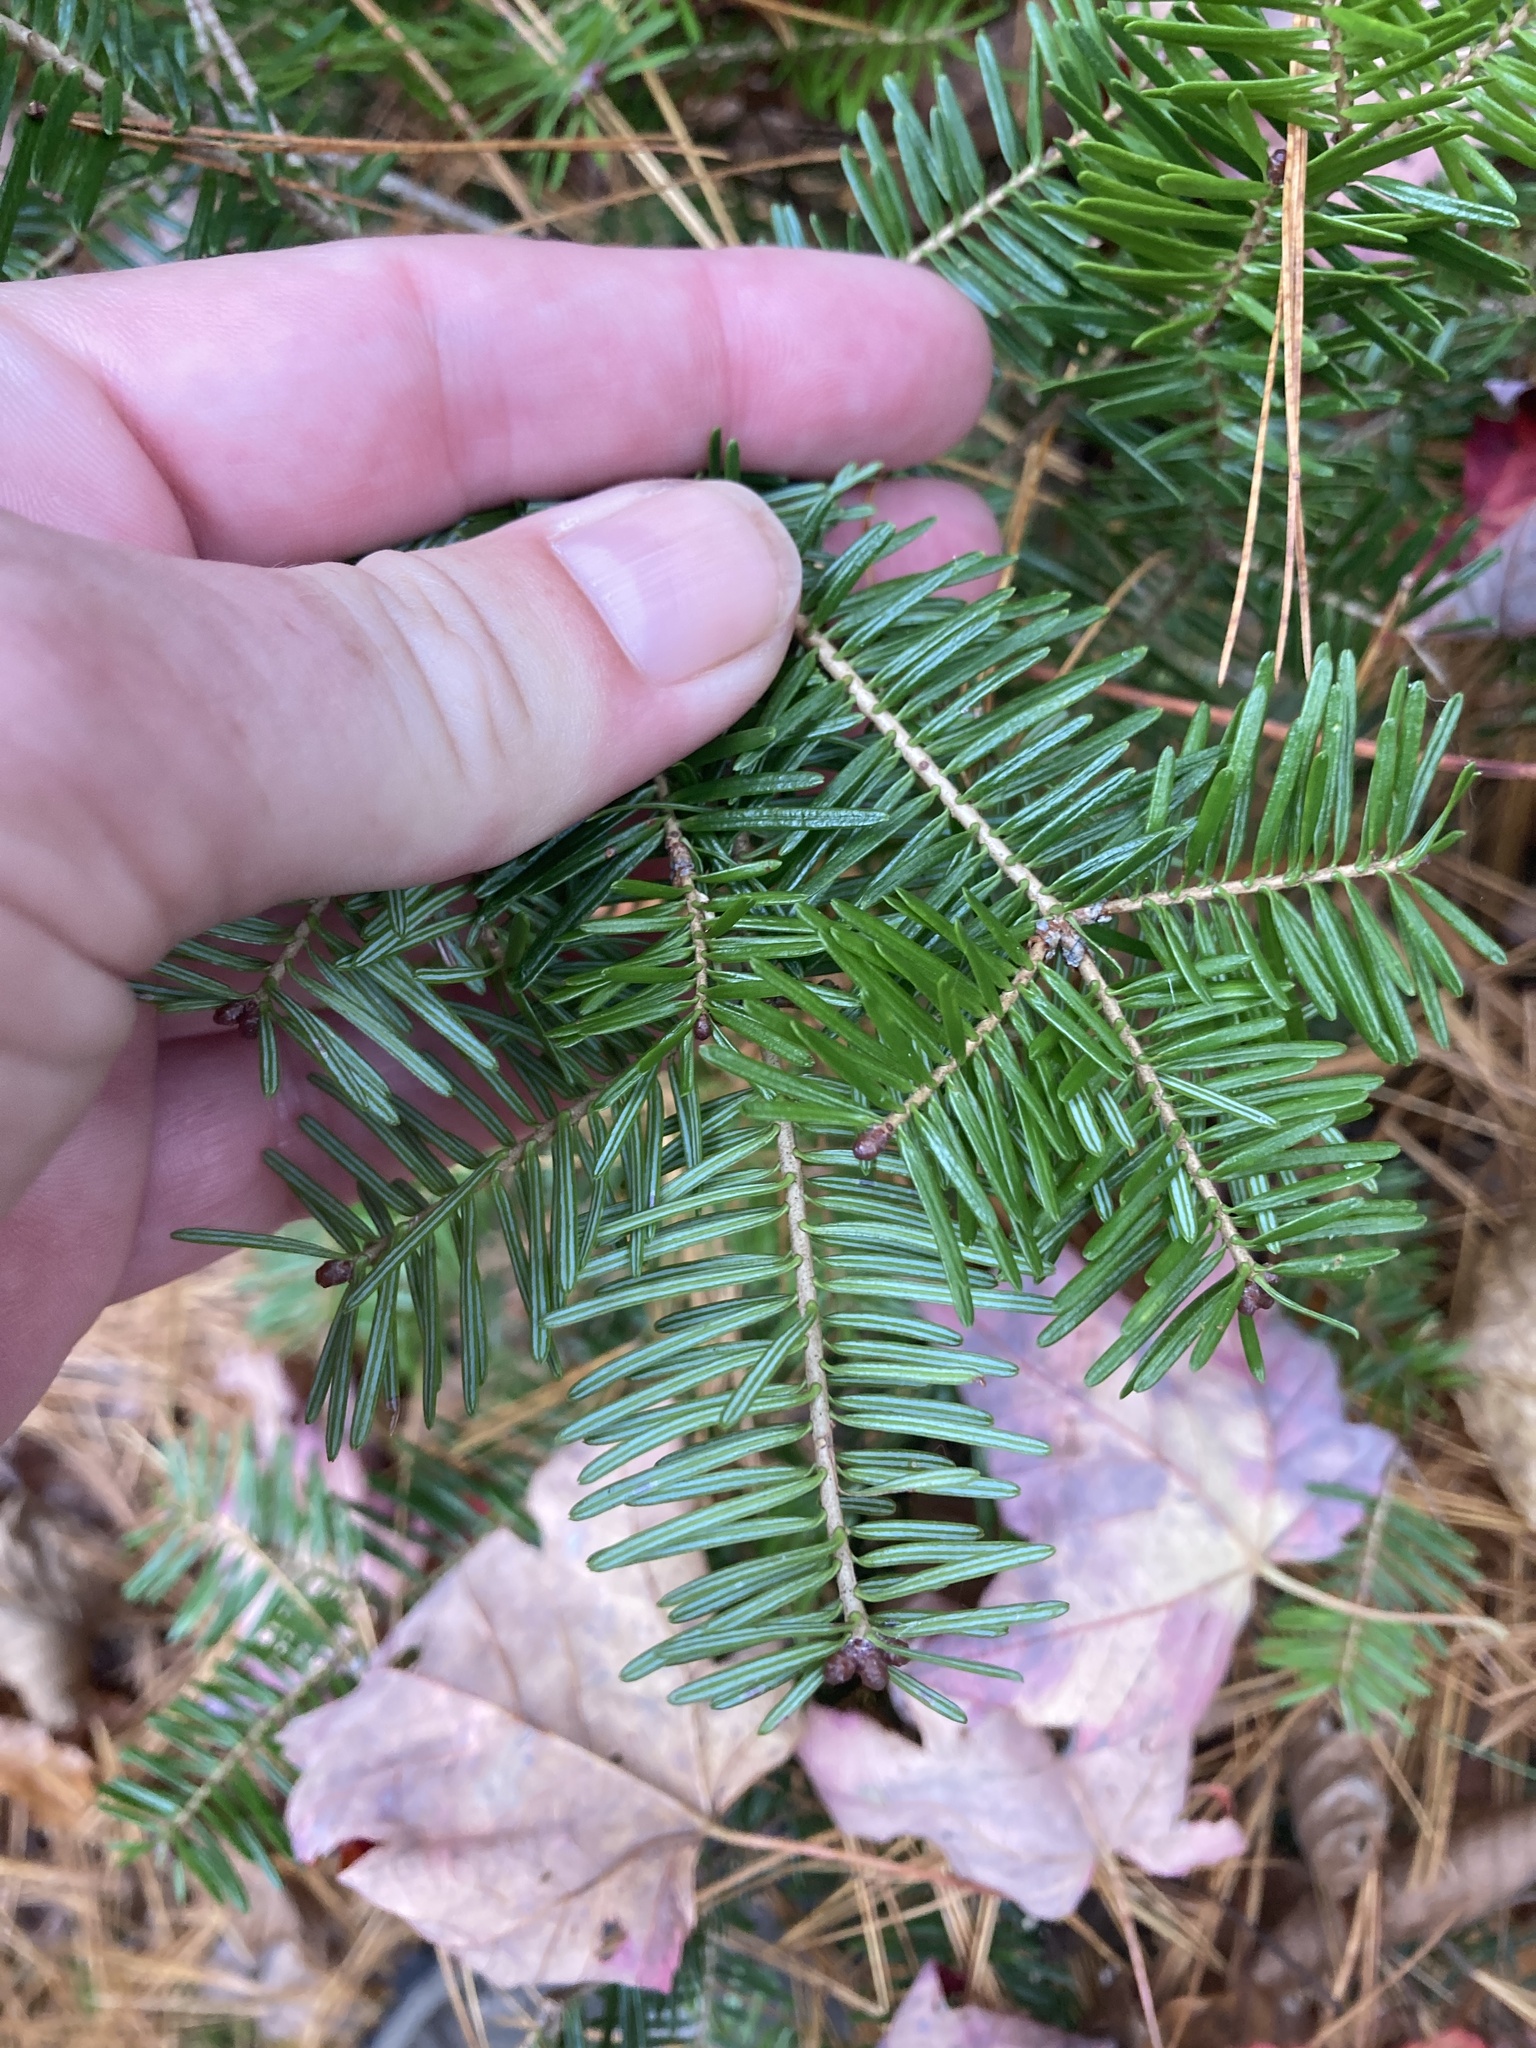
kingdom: Plantae
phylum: Tracheophyta
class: Pinopsida
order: Pinales
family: Pinaceae
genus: Abies
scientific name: Abies balsamea
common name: Balsam fir
